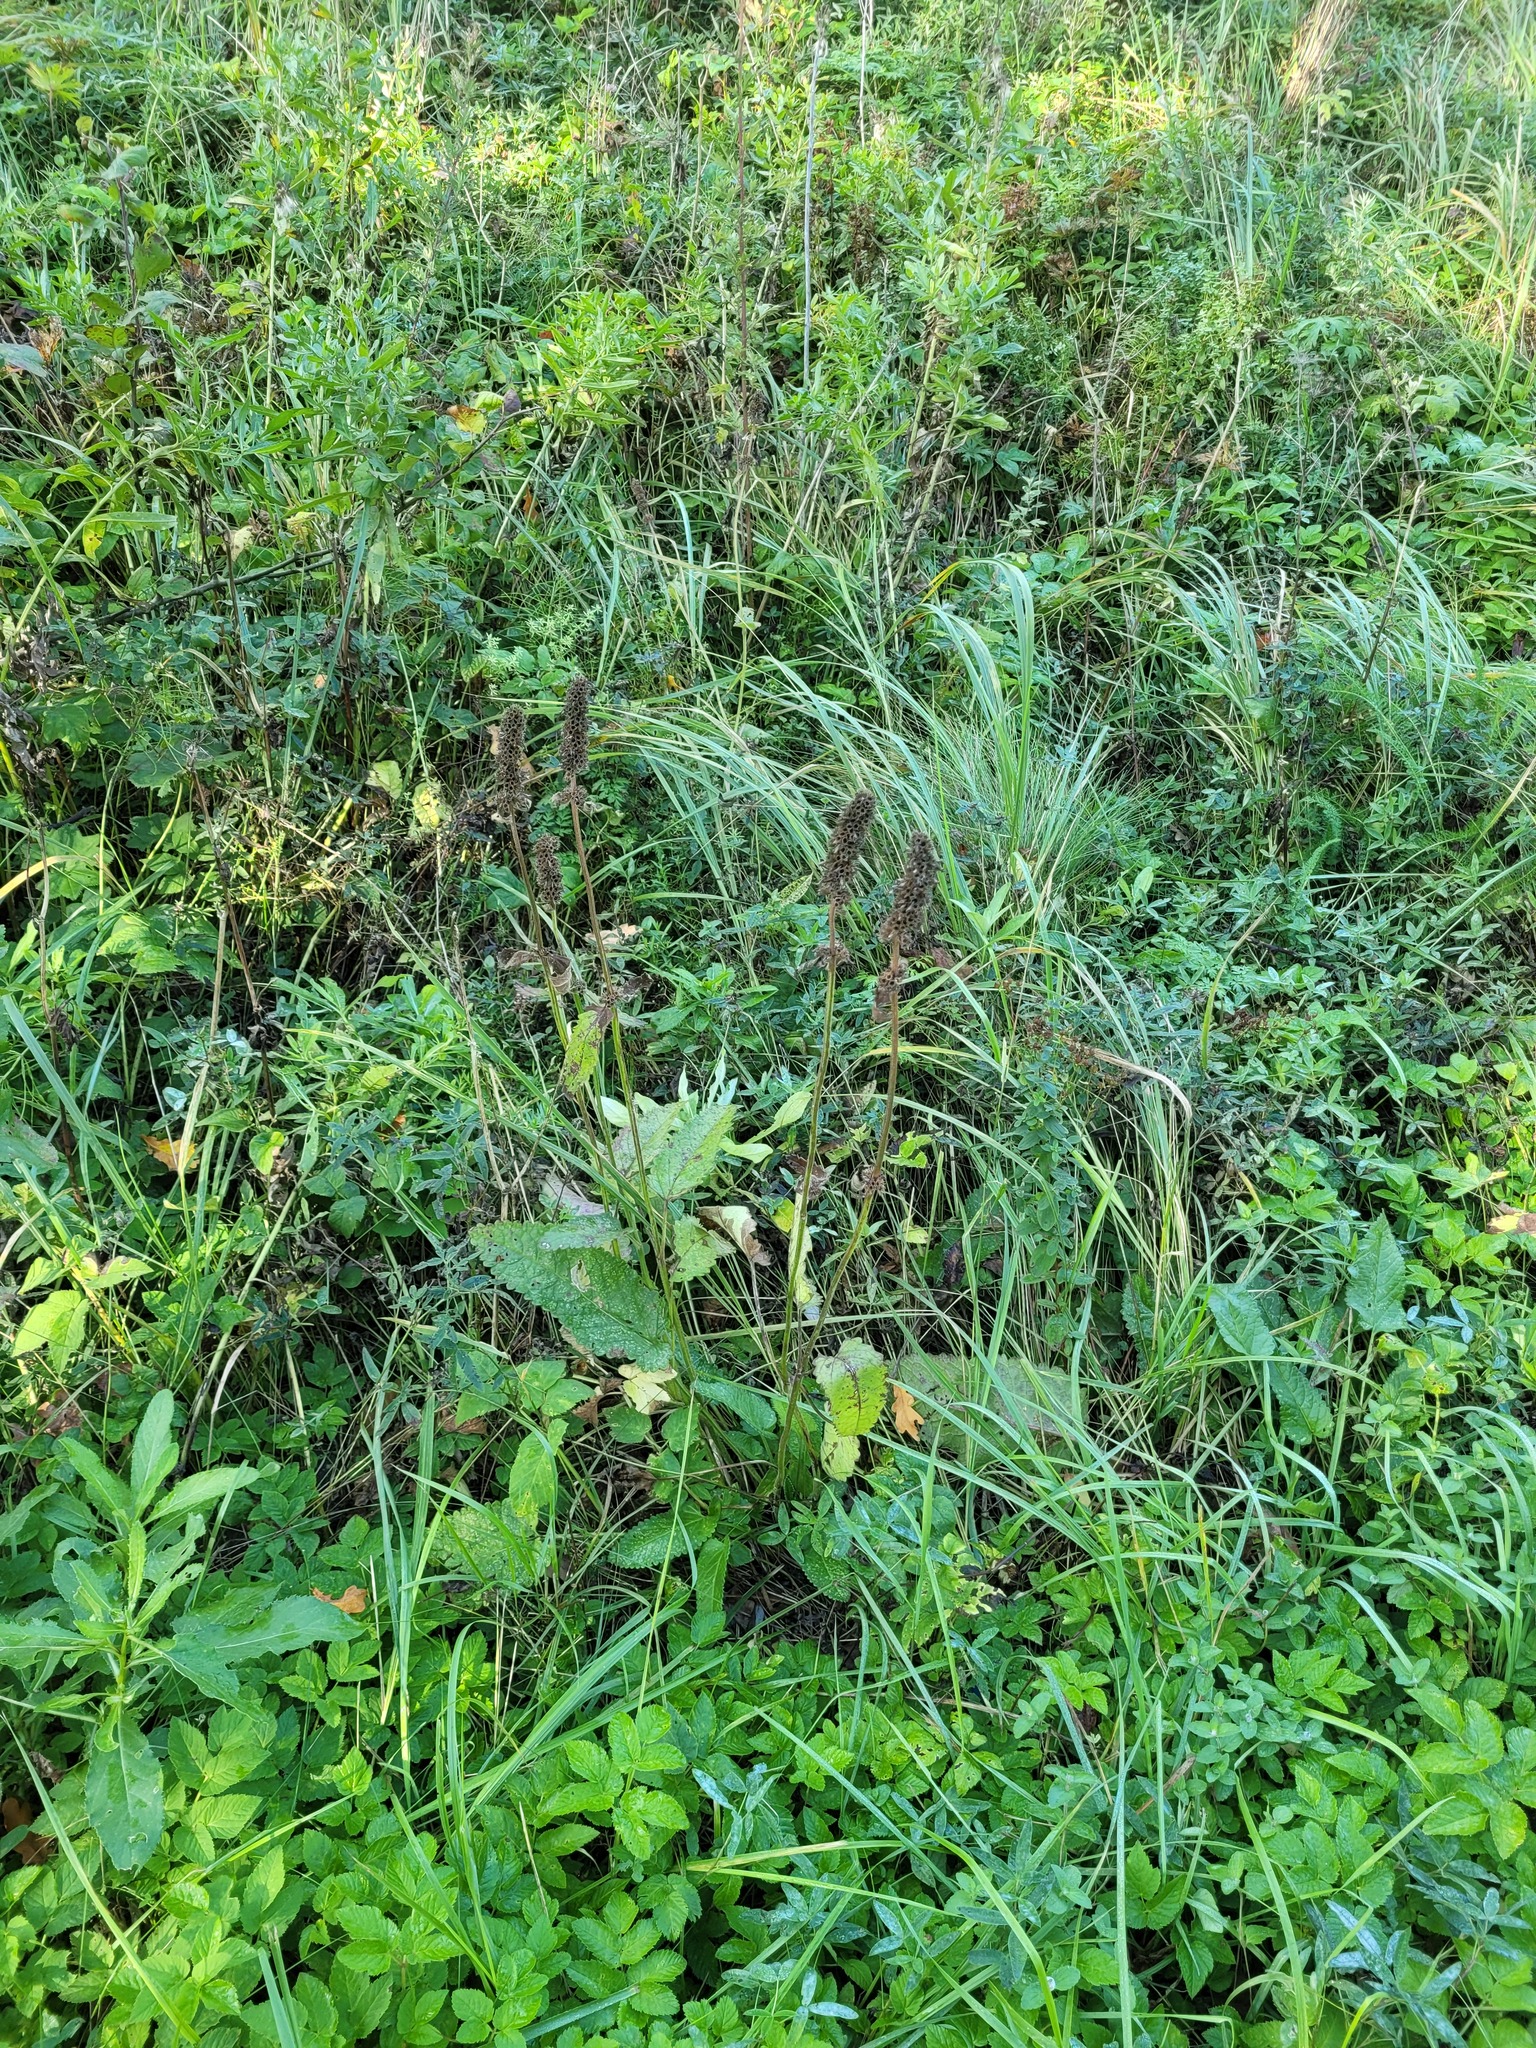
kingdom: Plantae
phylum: Tracheophyta
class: Magnoliopsida
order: Lamiales
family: Lamiaceae
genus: Betonica
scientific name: Betonica officinalis
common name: Bishop's-wort
